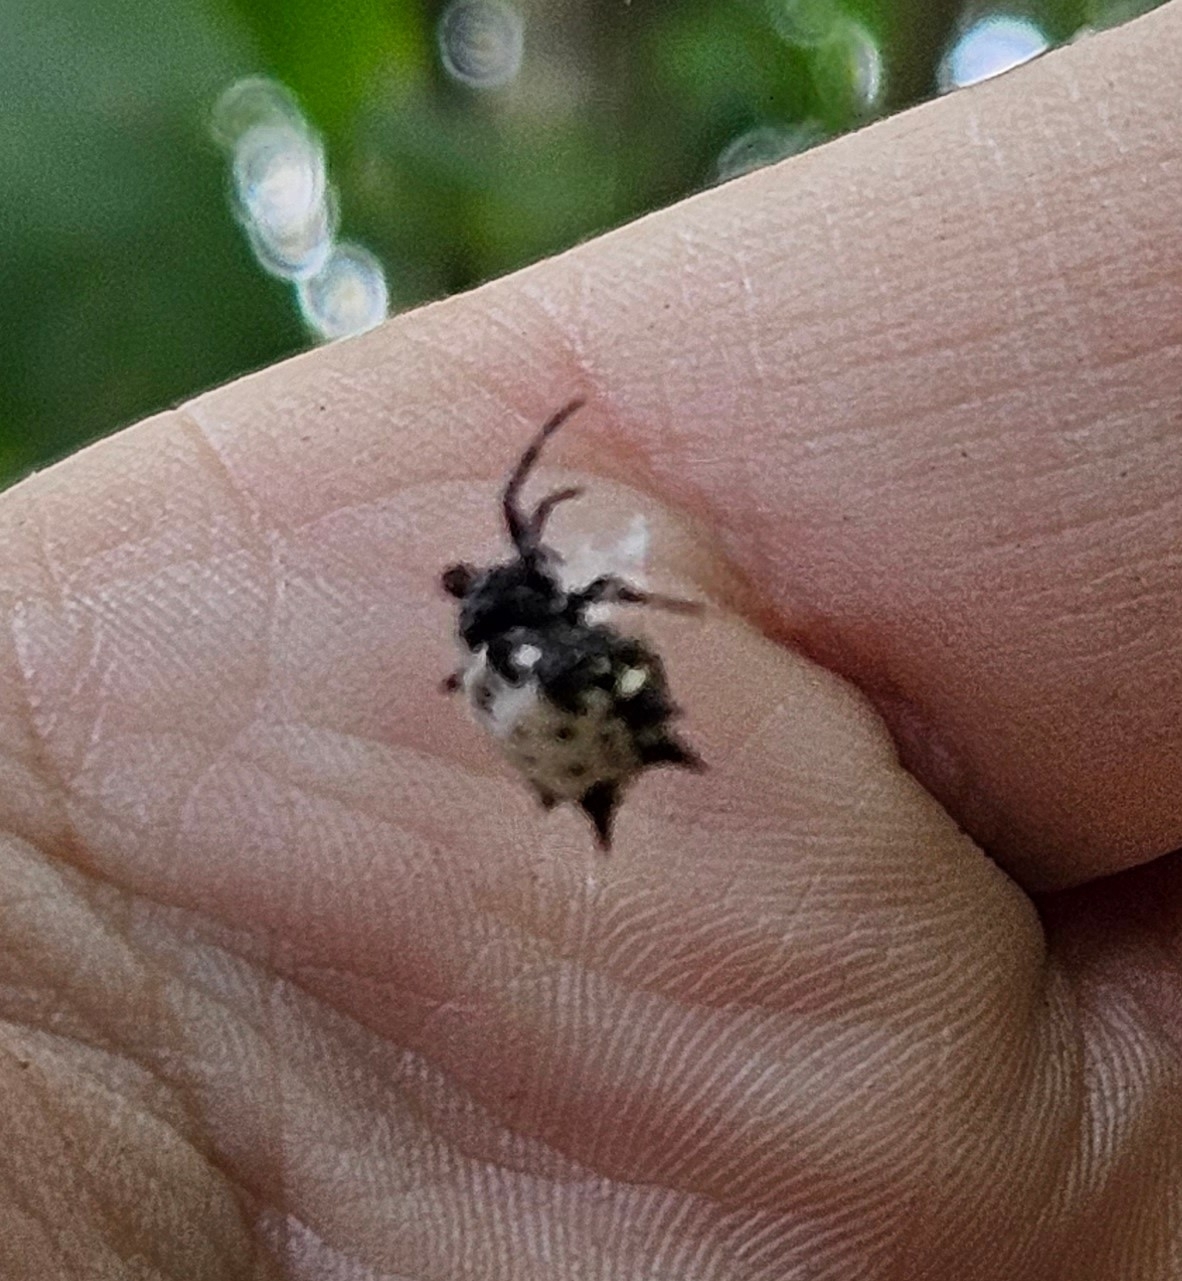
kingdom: Animalia
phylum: Arthropoda
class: Arachnida
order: Araneae
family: Araneidae
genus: Gasteracantha
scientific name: Gasteracantha cancriformis
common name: Orb weavers
